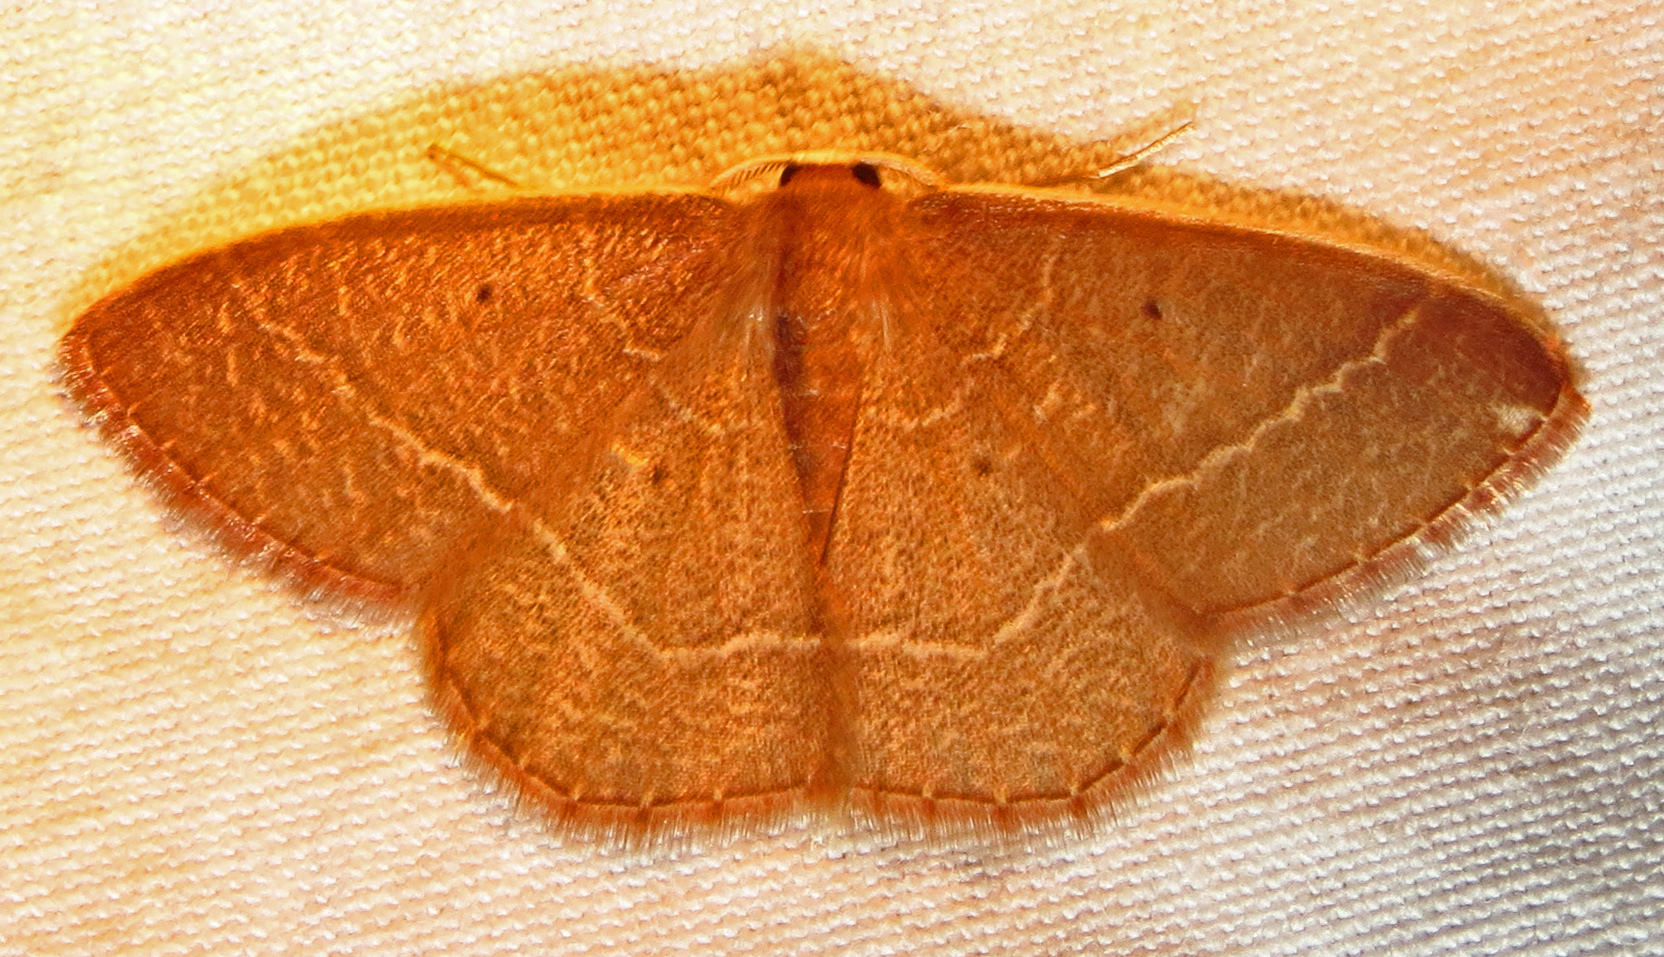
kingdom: Animalia
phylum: Arthropoda
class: Insecta
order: Lepidoptera
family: Geometridae
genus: Nemoria
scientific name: Nemoria bistriaria
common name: Red-fringed emerald
